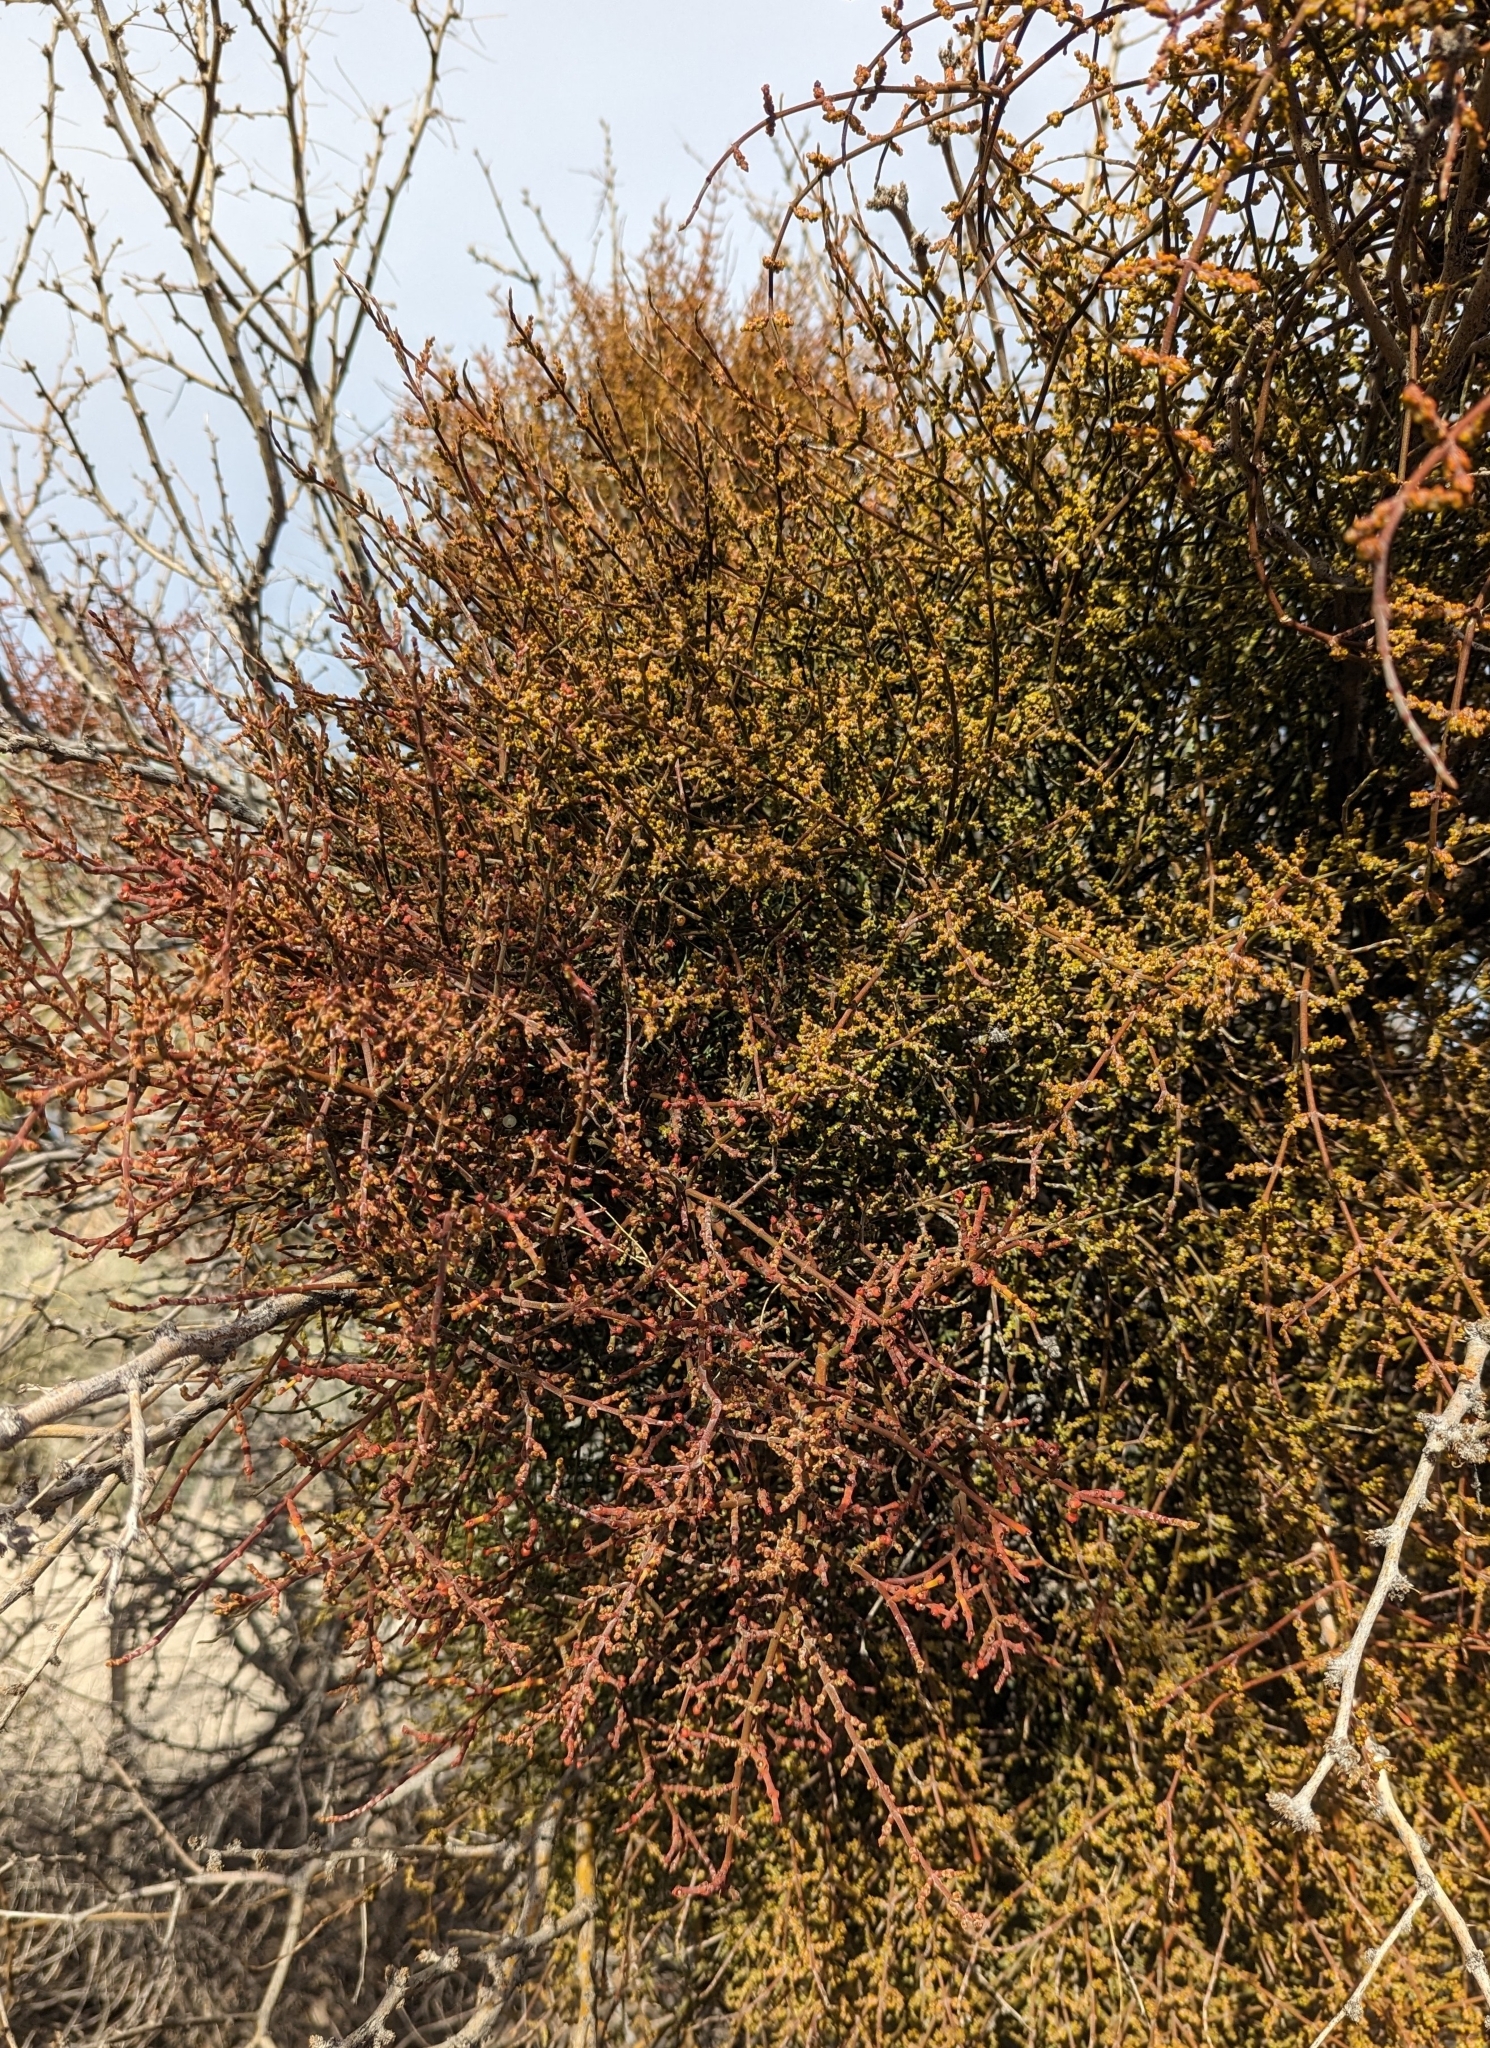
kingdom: Plantae
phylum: Tracheophyta
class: Magnoliopsida
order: Santalales
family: Viscaceae
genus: Phoradendron
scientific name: Phoradendron californicum
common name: Acacia mistletoe
